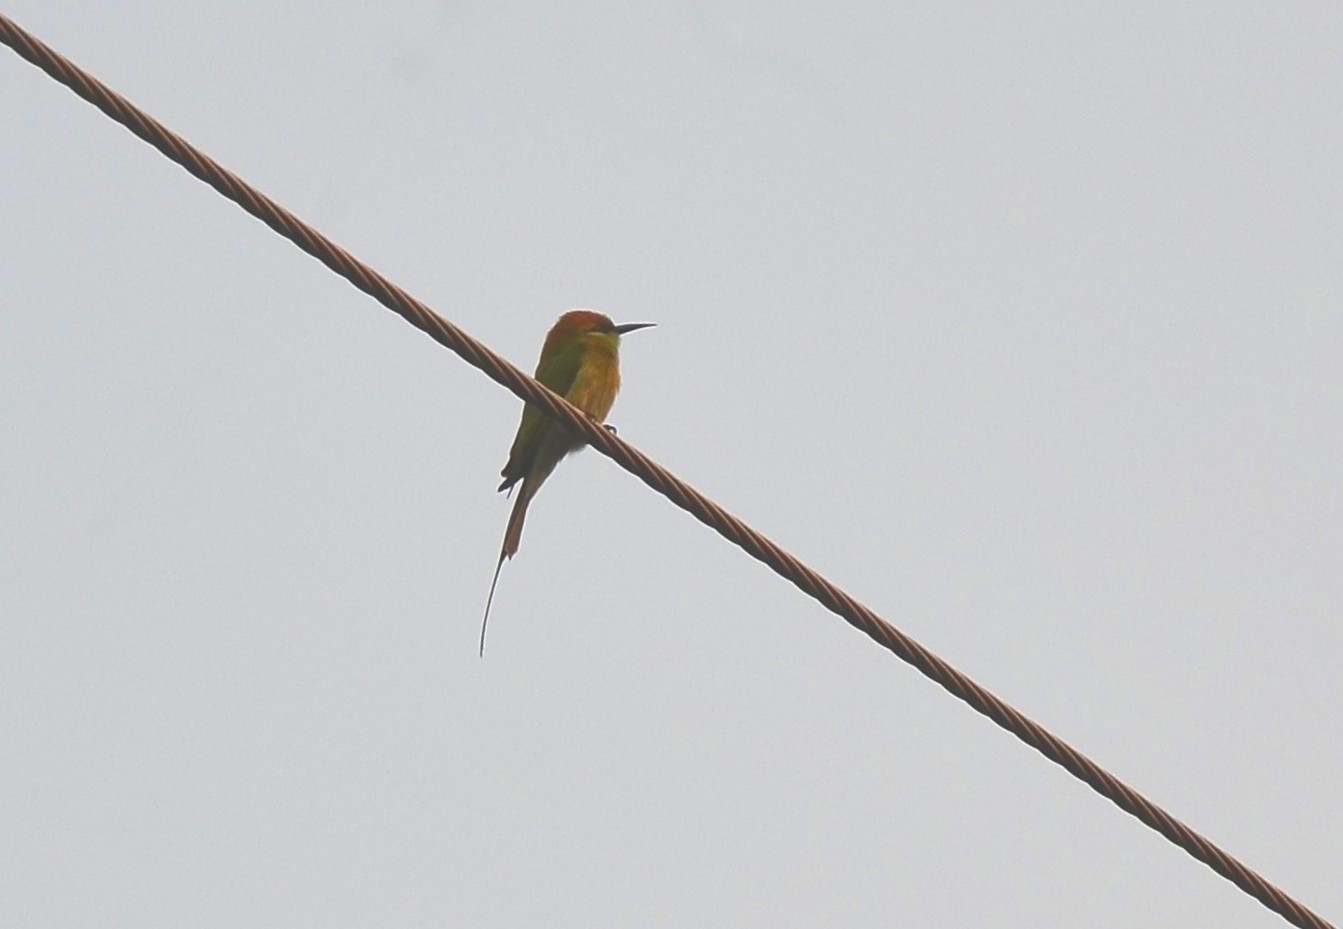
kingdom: Animalia
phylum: Chordata
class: Aves
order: Coraciiformes
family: Meropidae
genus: Merops
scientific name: Merops orientalis
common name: Green bee-eater
